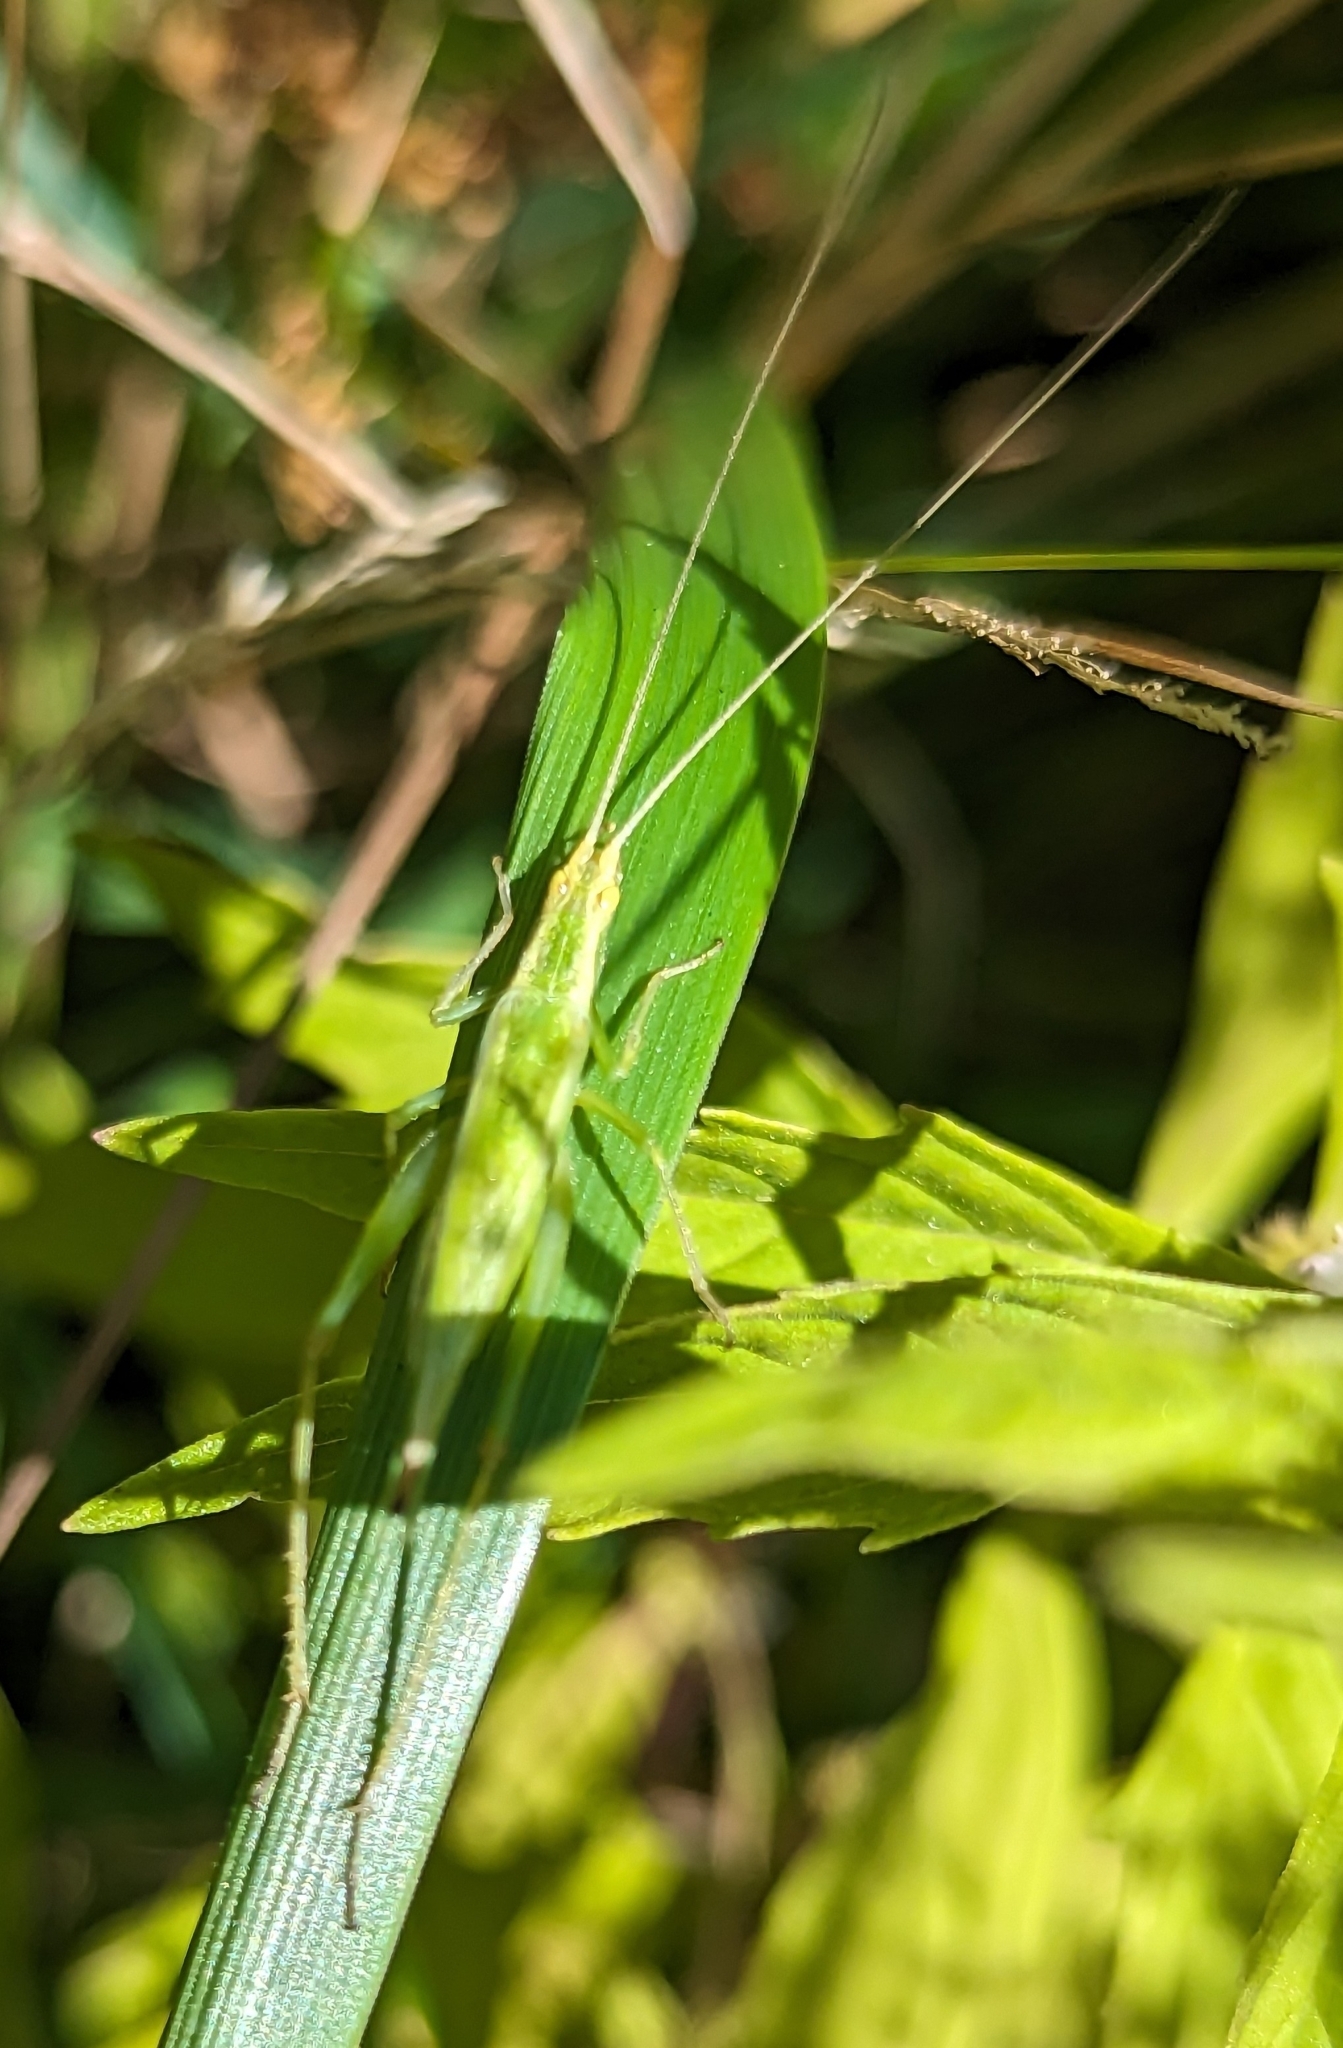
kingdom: Animalia
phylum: Arthropoda
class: Insecta
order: Orthoptera
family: Gryllidae
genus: Oecanthus
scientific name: Oecanthus quadripunctatus
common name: Four-spotted tree cricket
